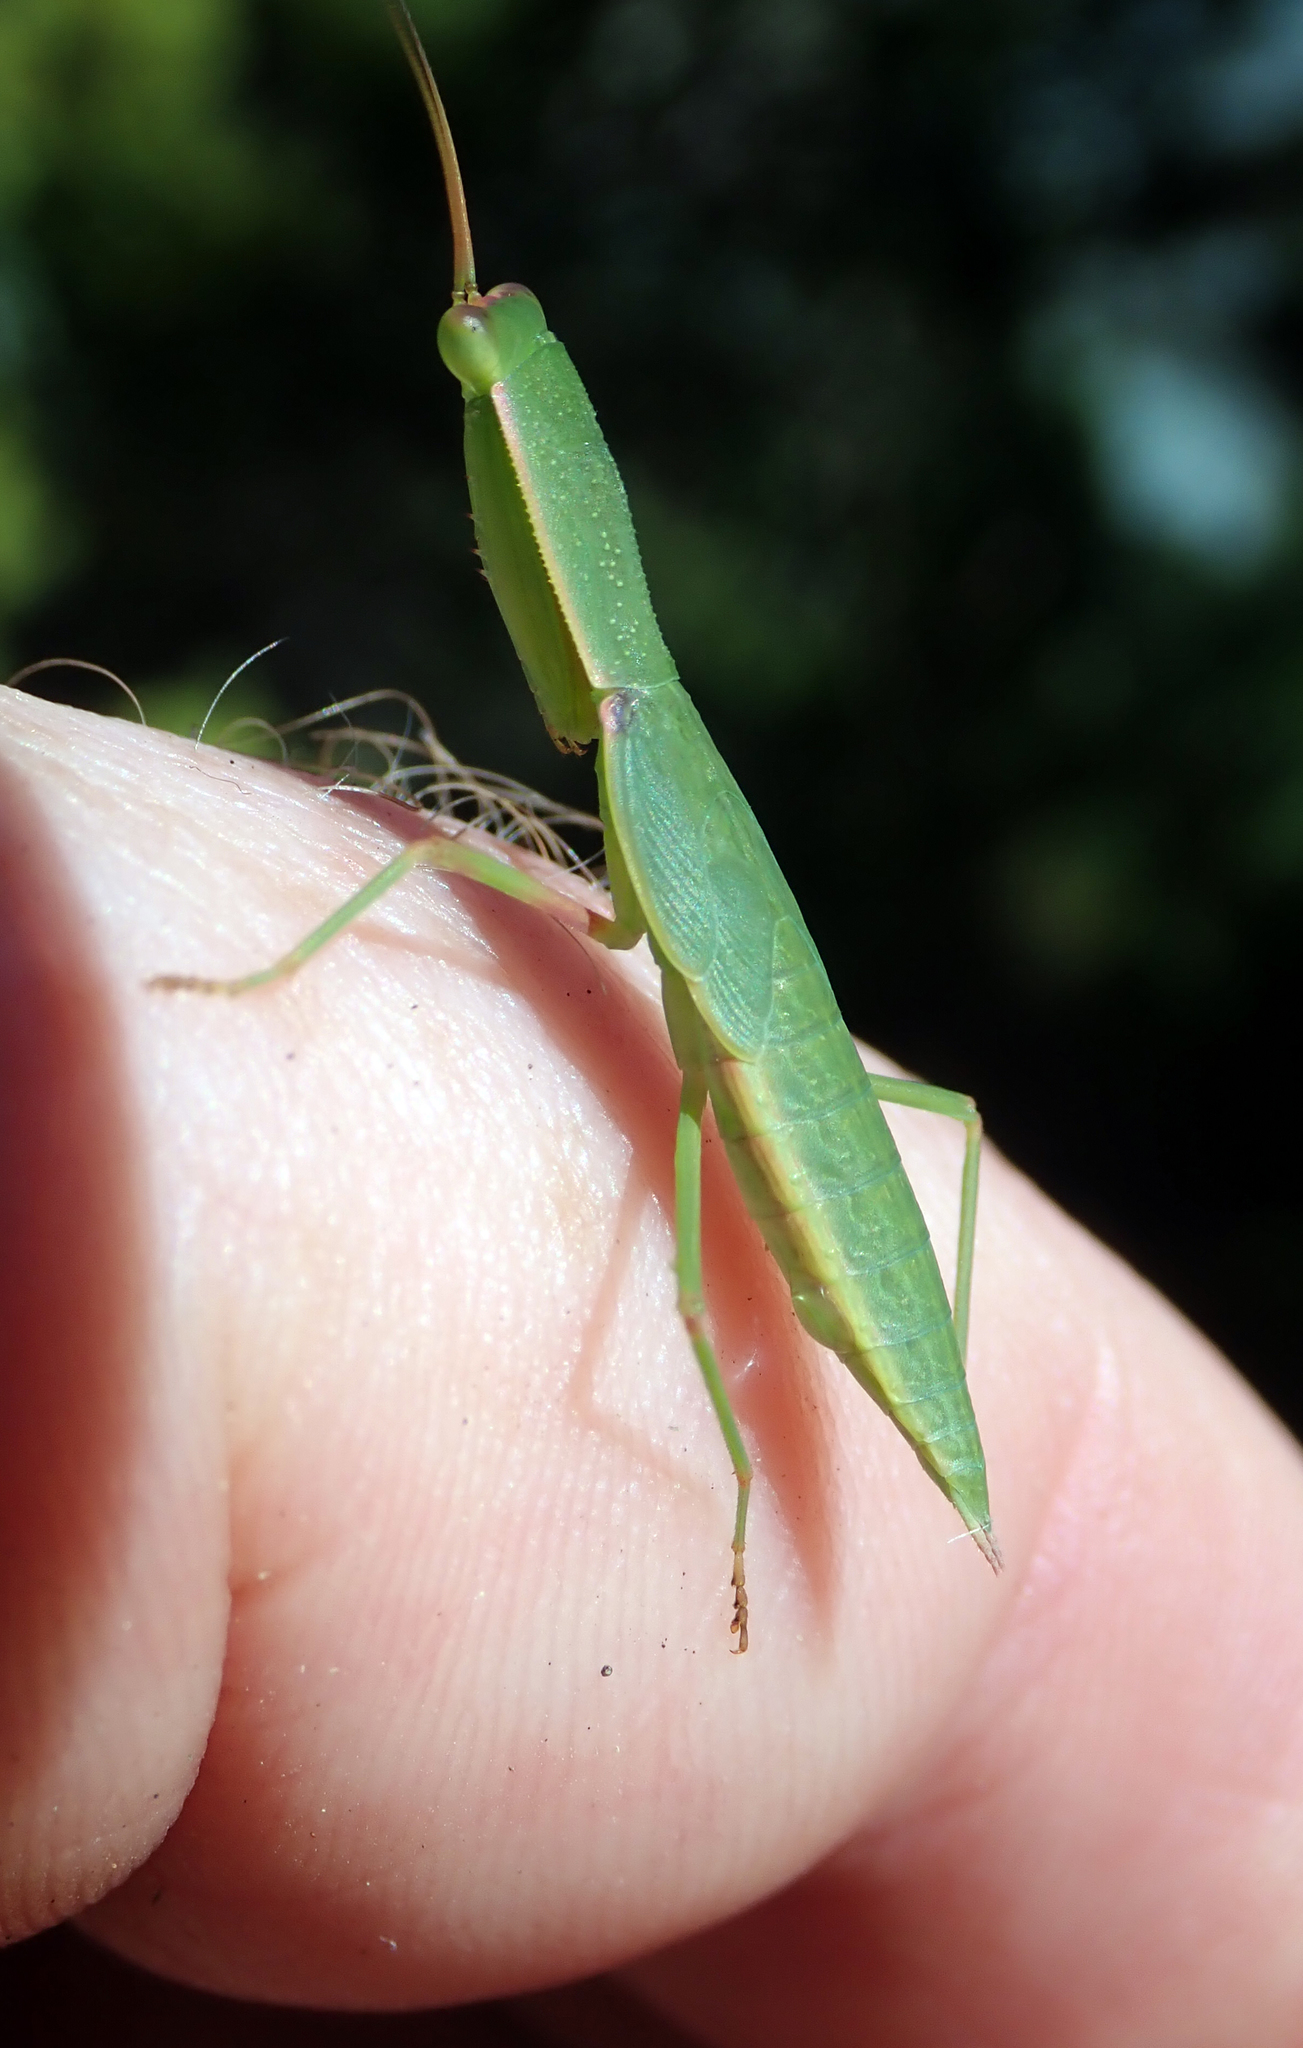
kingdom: Animalia
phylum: Arthropoda
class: Insecta
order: Mantodea
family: Mantidae
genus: Orthodera
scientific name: Orthodera novaezealandiae
